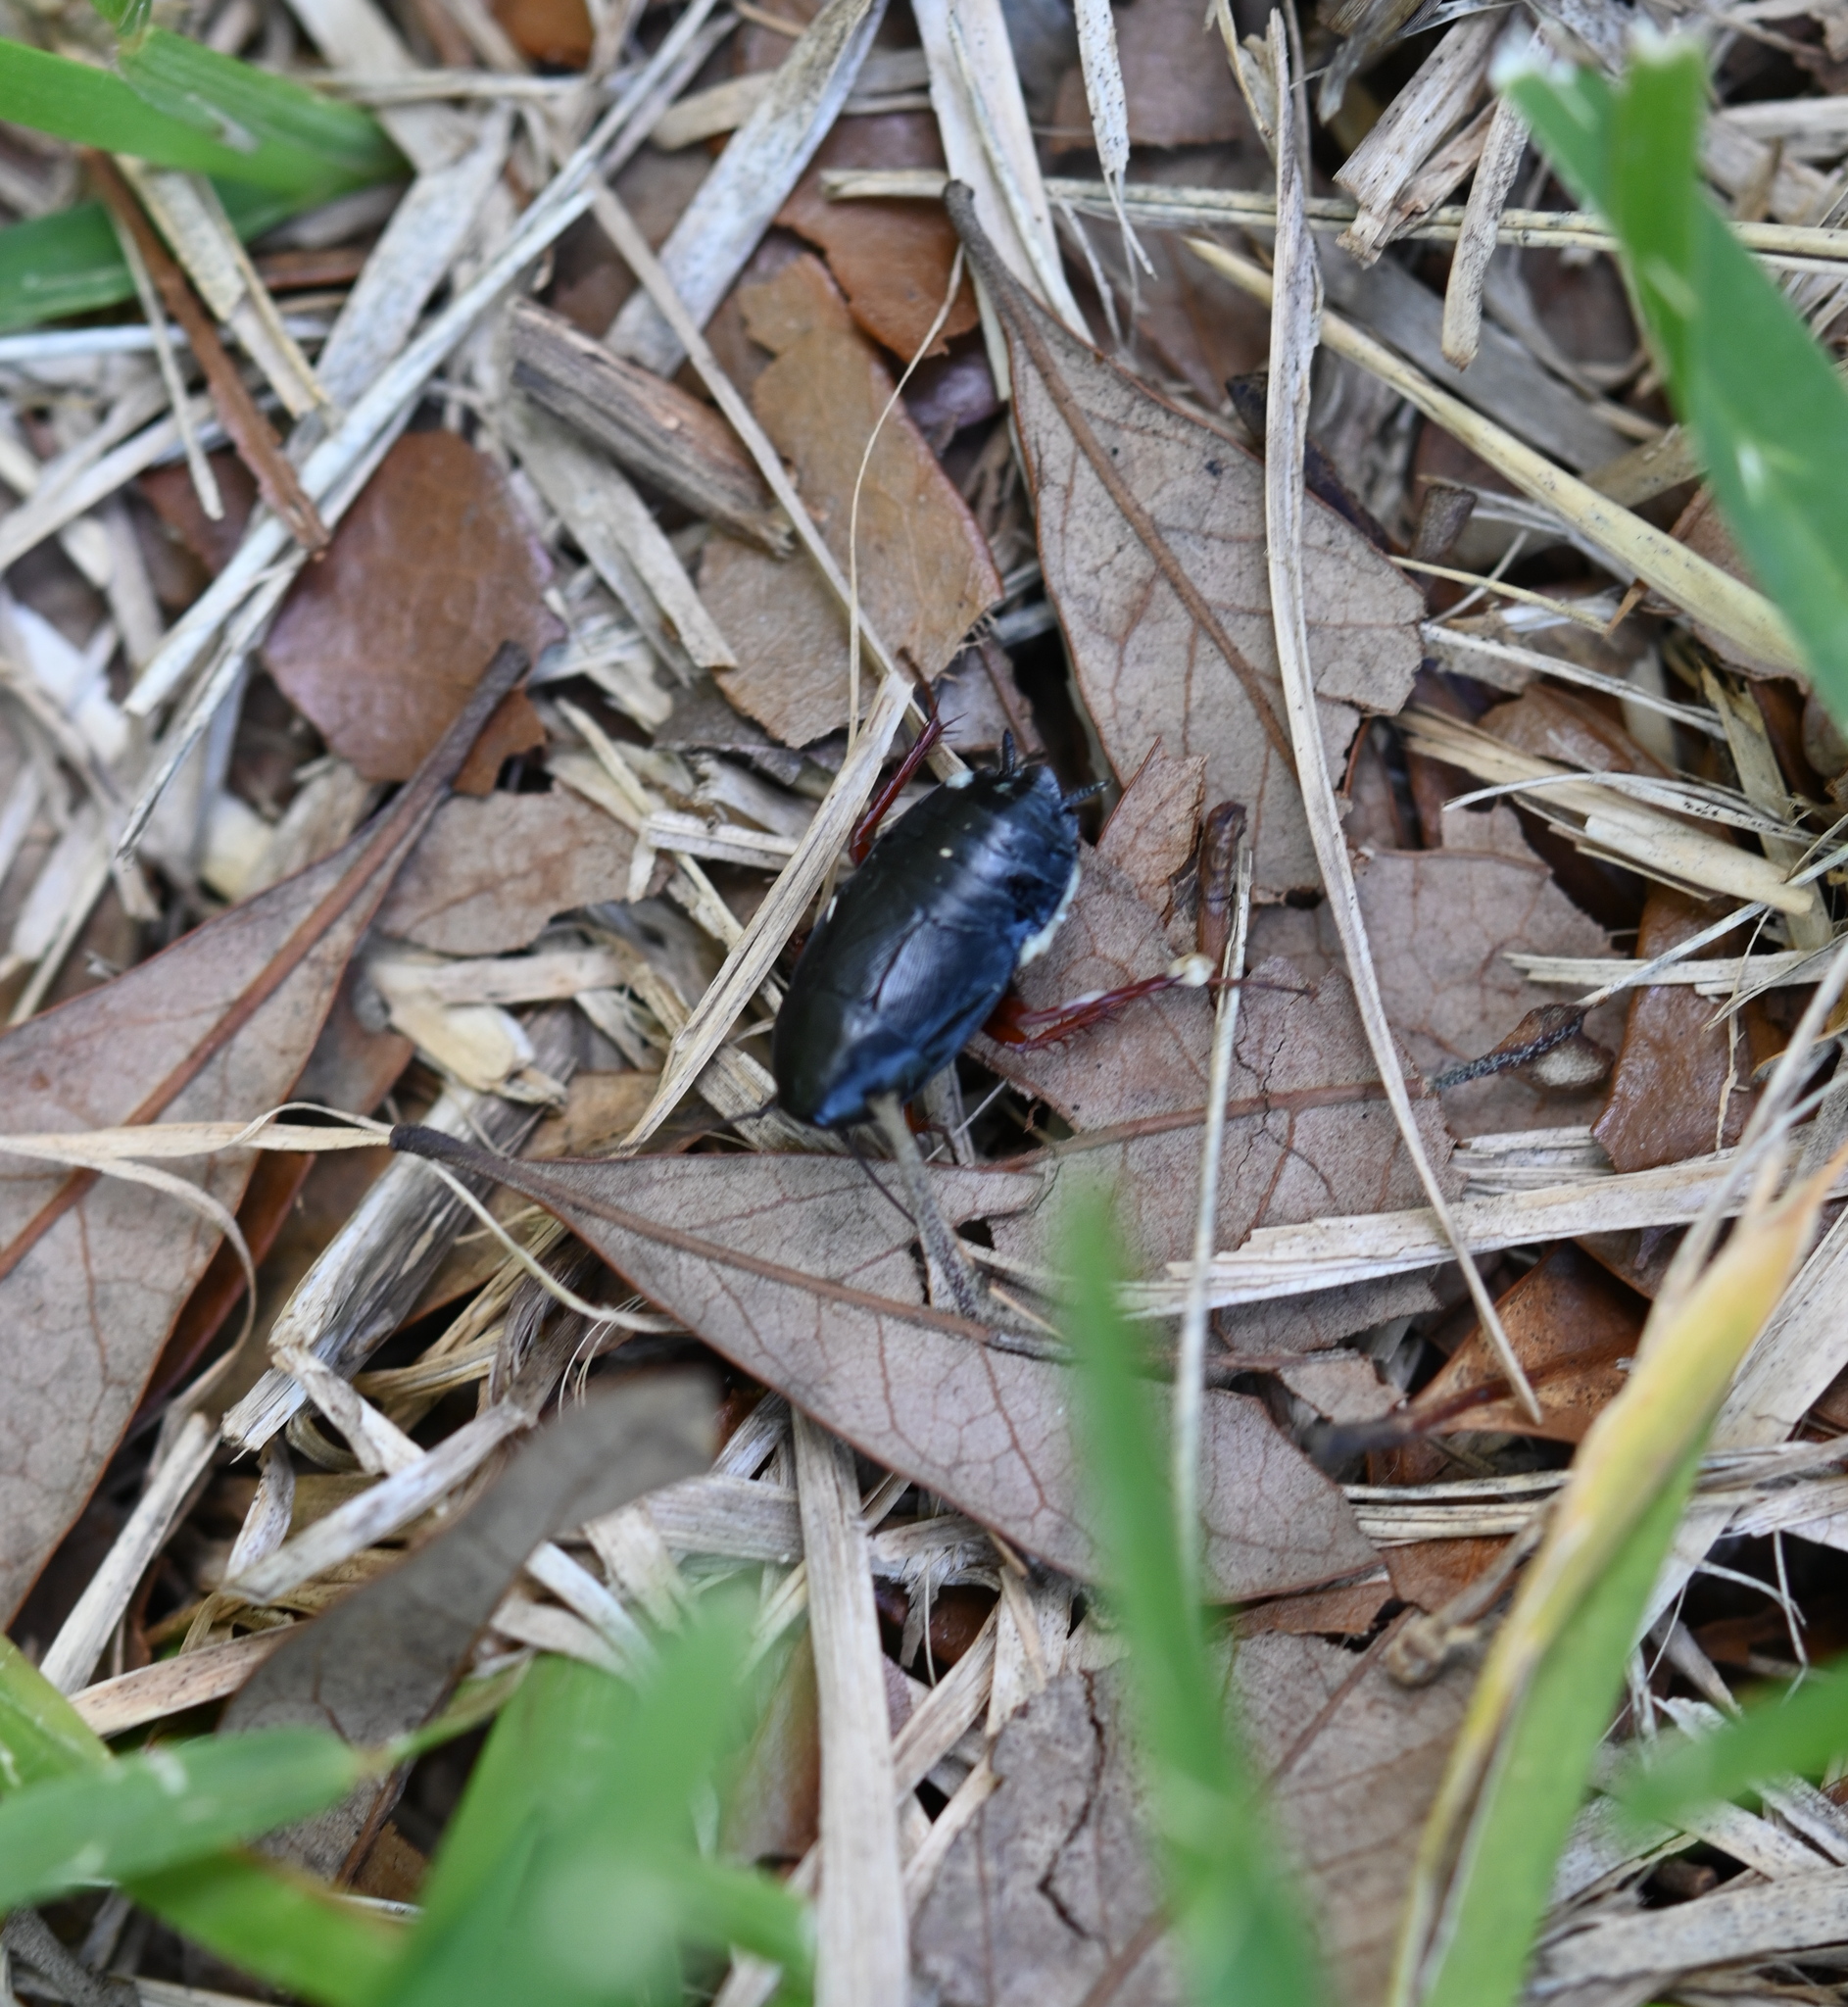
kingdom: Animalia
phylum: Arthropoda
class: Insecta
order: Blattodea
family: Ectobiidae
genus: Ischnoptera
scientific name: Ischnoptera deropeltiformis
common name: Dark wood cockroach
